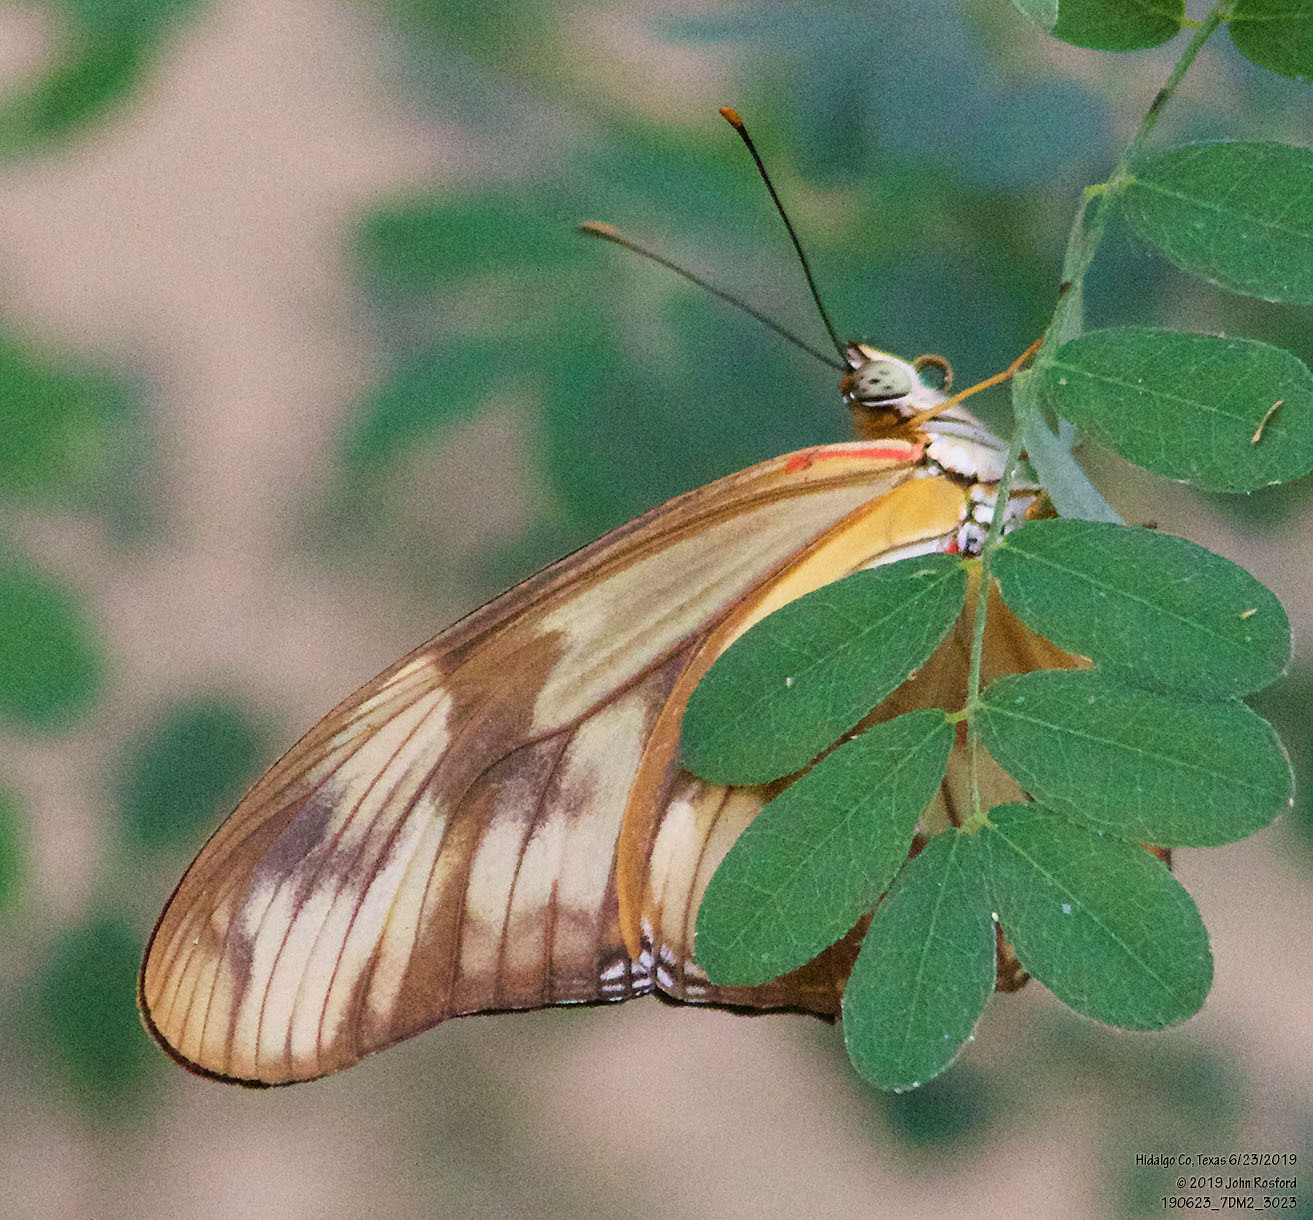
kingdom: Animalia
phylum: Arthropoda
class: Insecta
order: Lepidoptera
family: Nymphalidae
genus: Dryas
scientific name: Dryas iulia
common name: Flambeau
